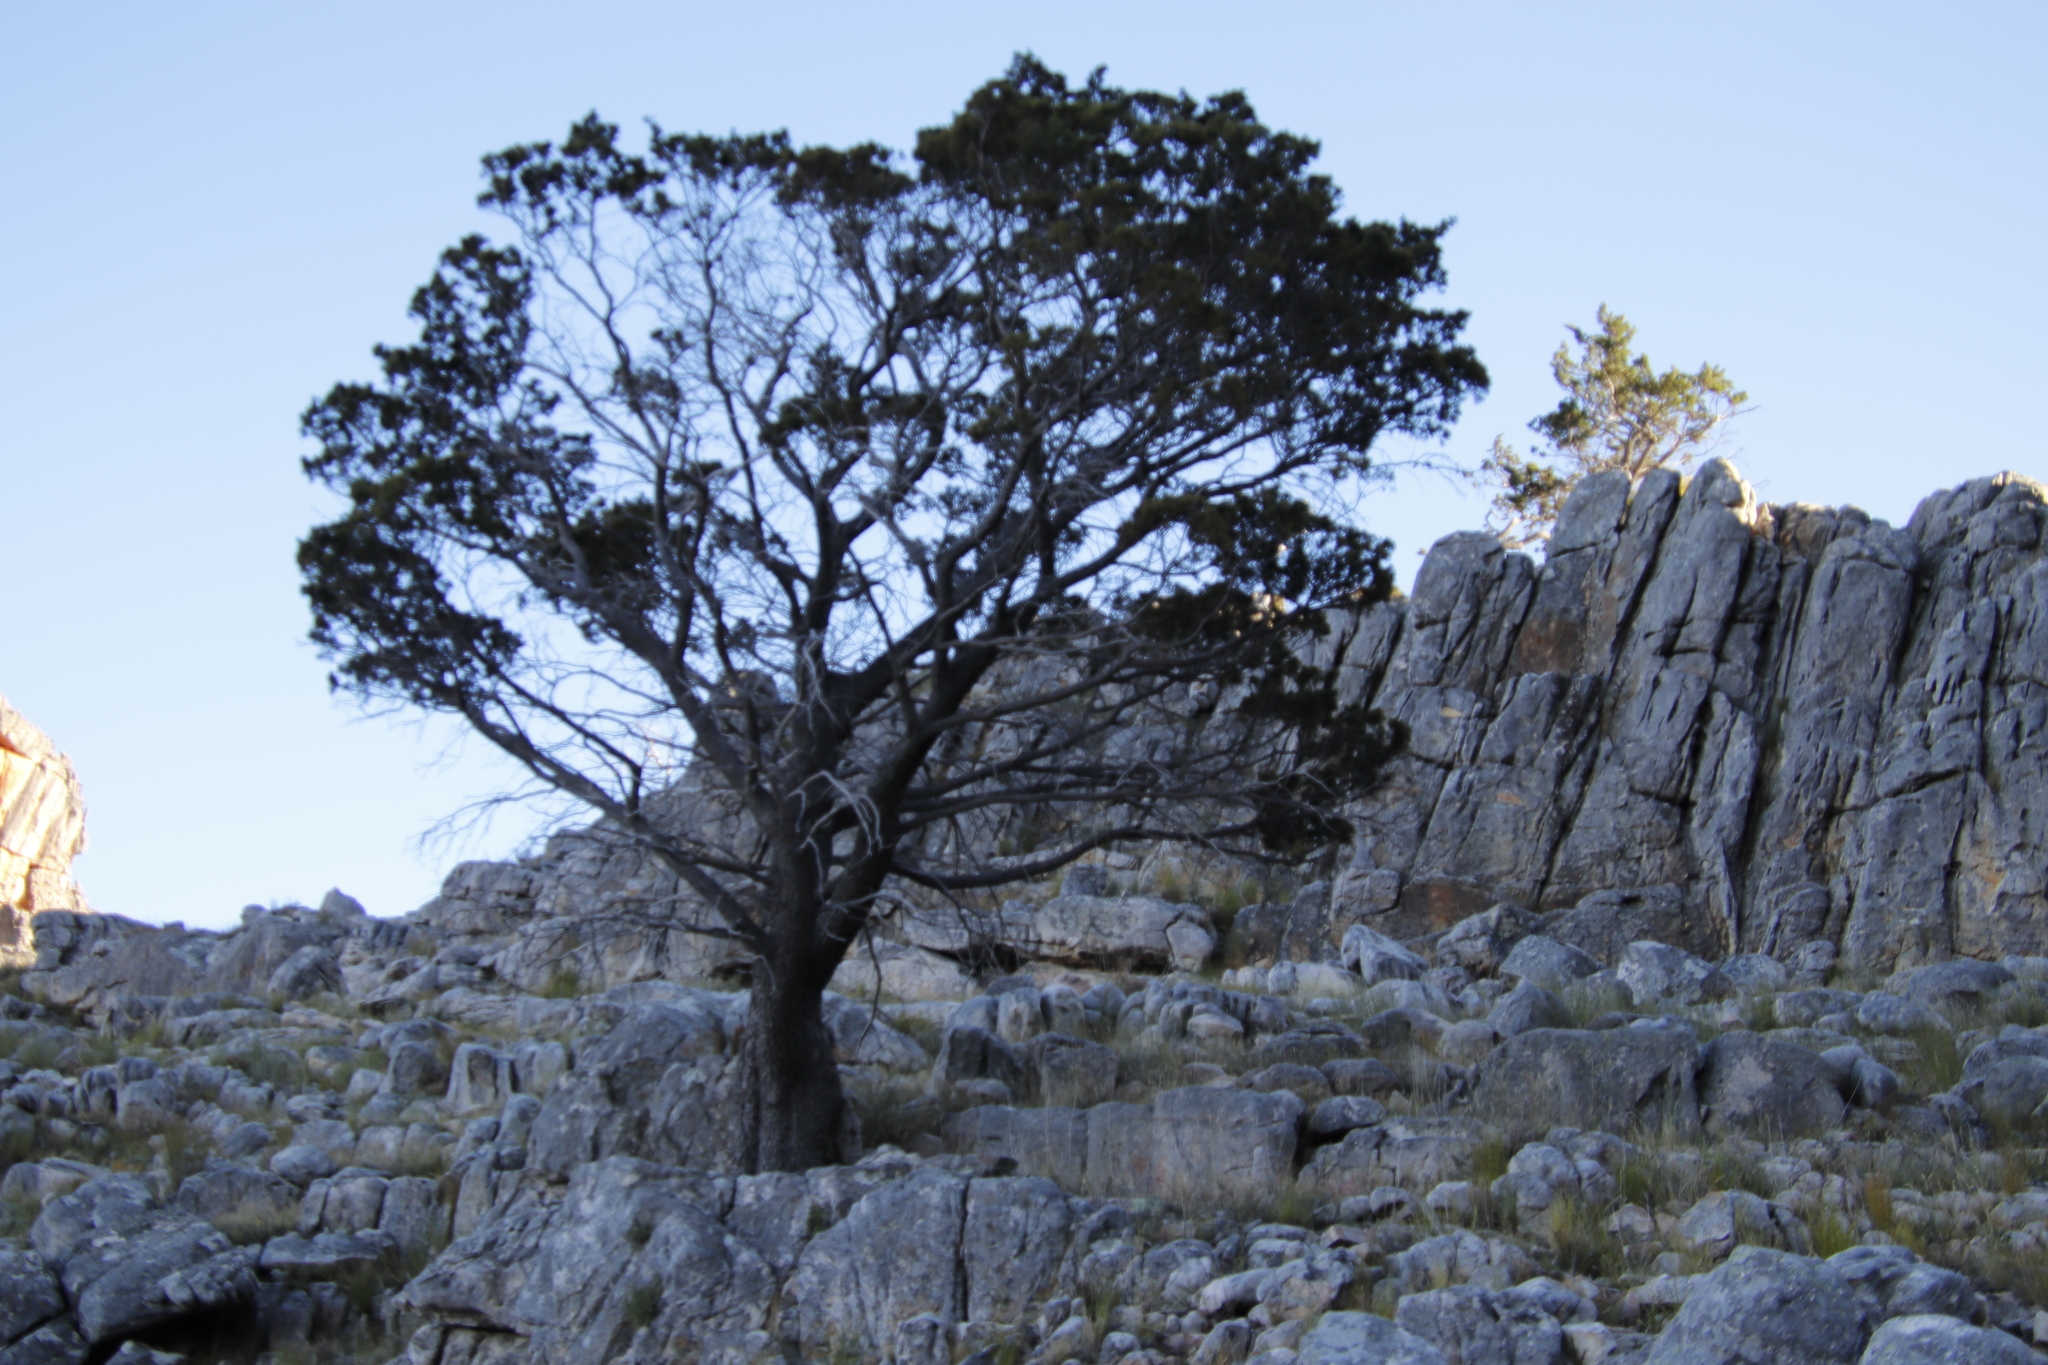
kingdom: Plantae
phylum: Tracheophyta
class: Pinopsida
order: Pinales
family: Cupressaceae
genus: Widdringtonia
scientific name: Widdringtonia nodiflora
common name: Cape cypress
